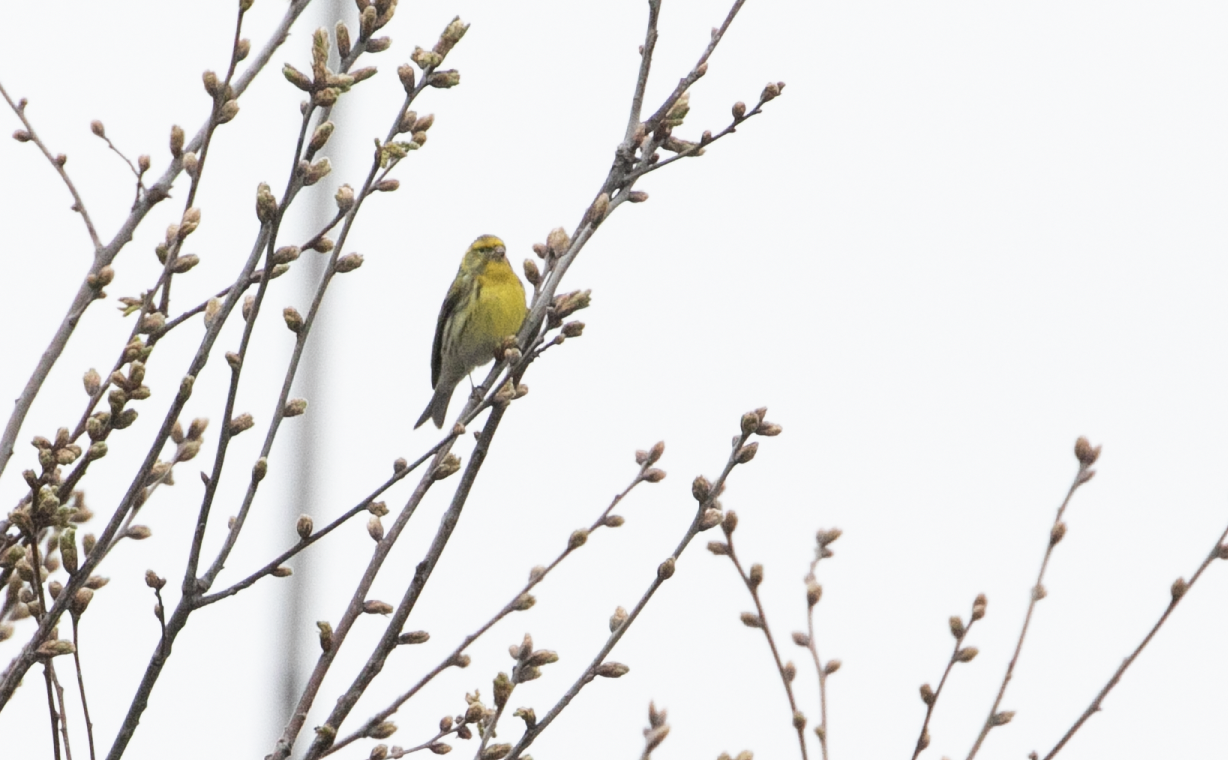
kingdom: Animalia
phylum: Chordata
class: Aves
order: Passeriformes
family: Fringillidae
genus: Serinus
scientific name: Serinus serinus
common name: European serin
